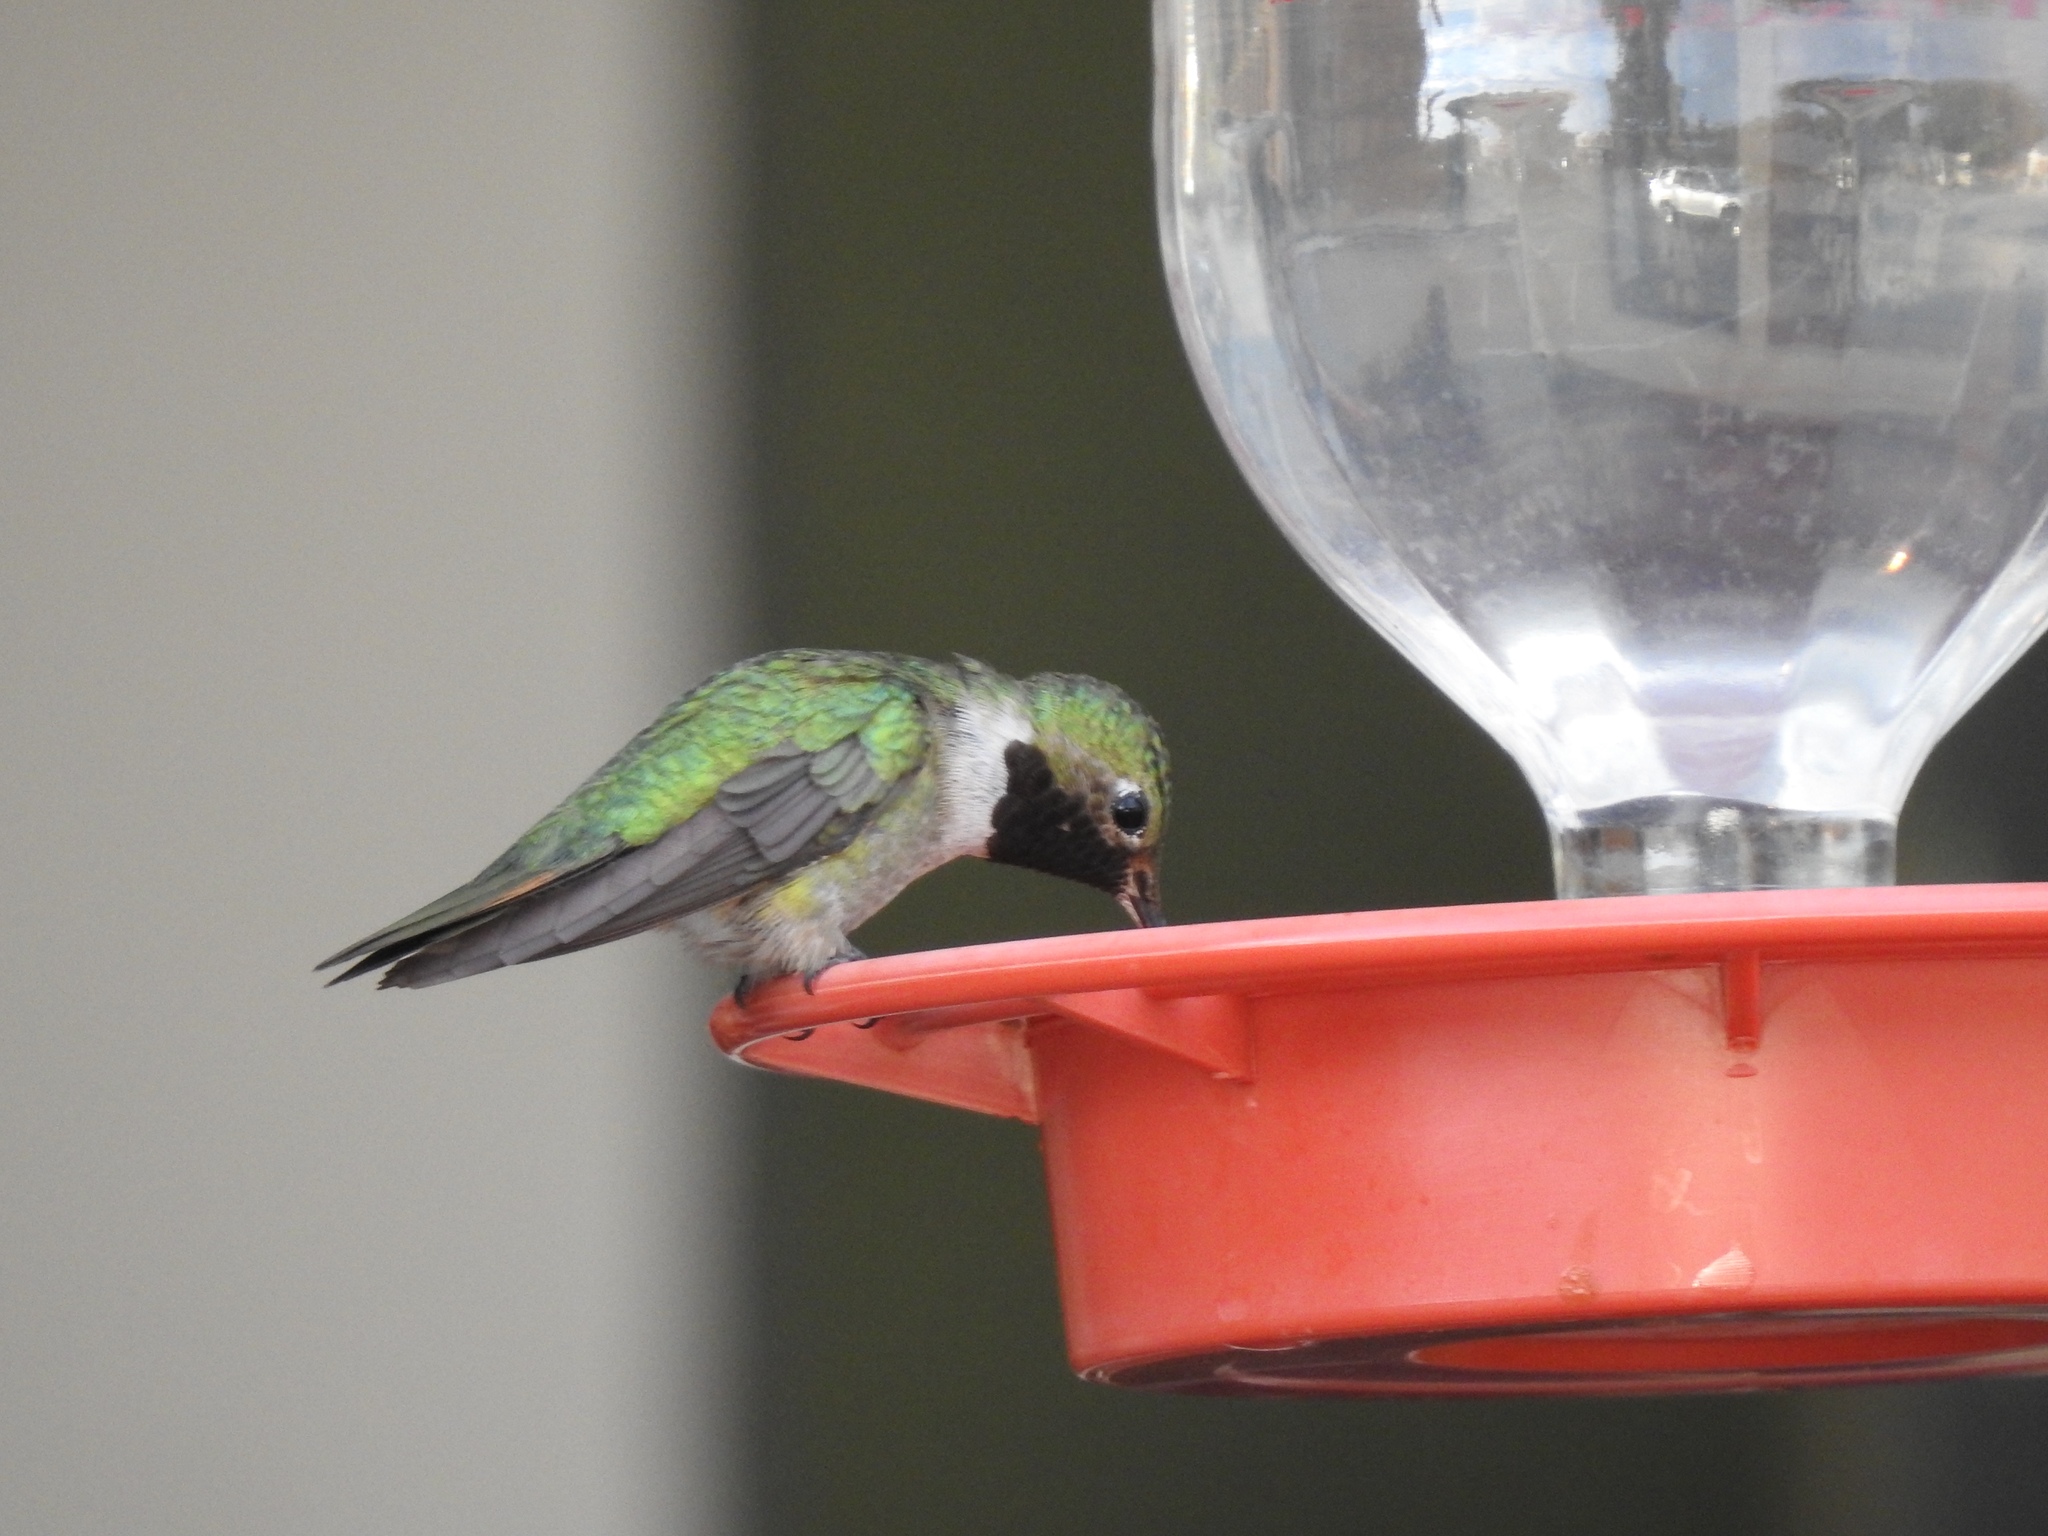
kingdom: Animalia
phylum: Chordata
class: Aves
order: Apodiformes
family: Trochilidae
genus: Selasphorus
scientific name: Selasphorus platycercus
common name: Broad-tailed hummingbird
